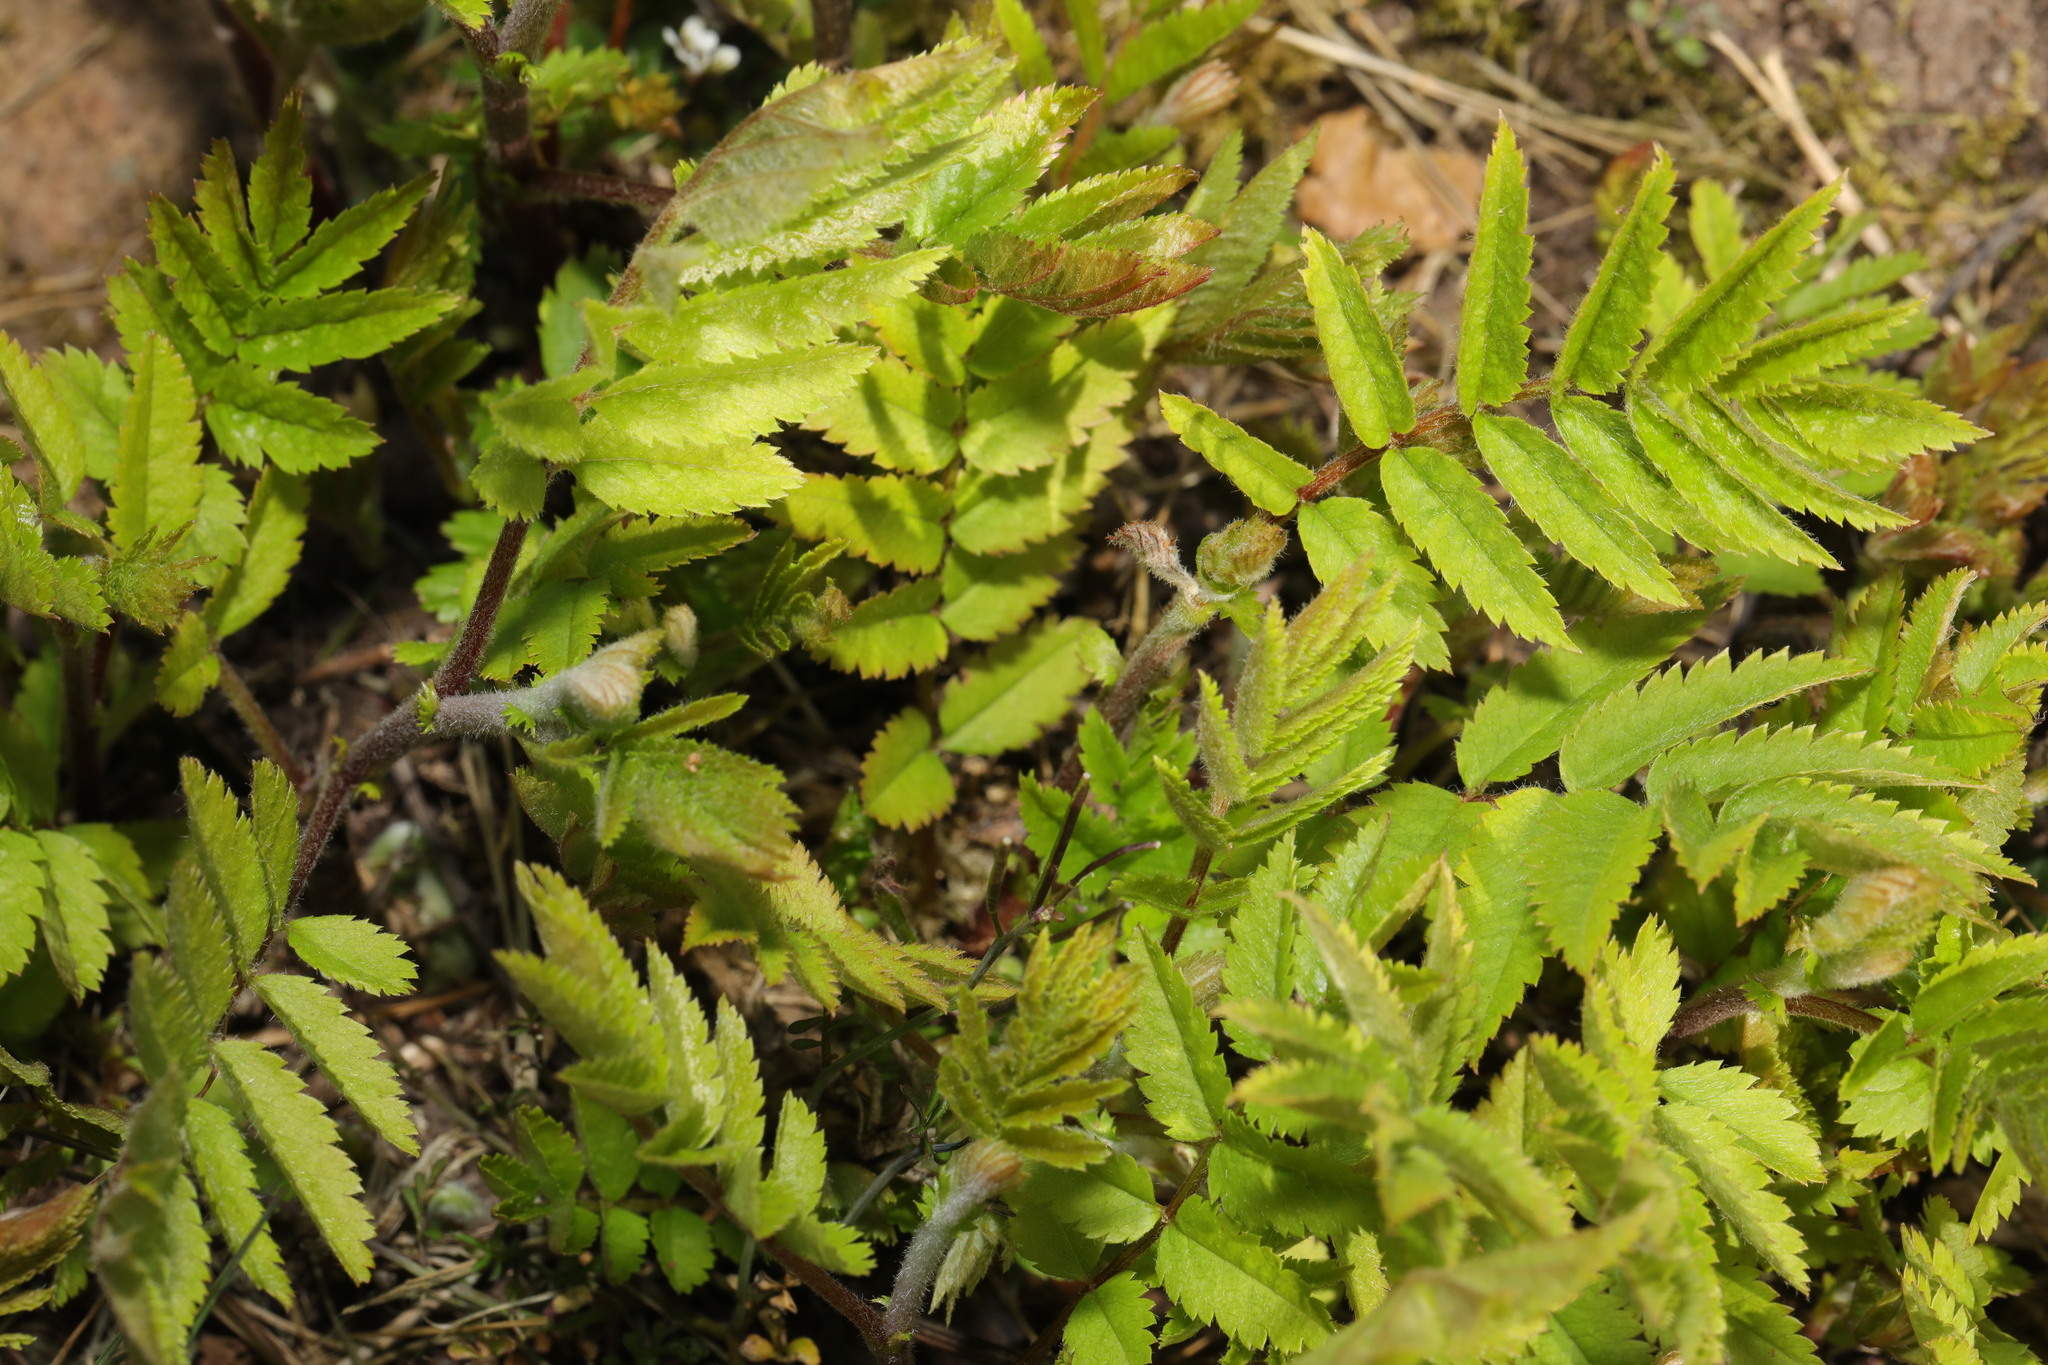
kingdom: Plantae
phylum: Tracheophyta
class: Magnoliopsida
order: Rosales
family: Rosaceae
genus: Sorbus
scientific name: Sorbus aucuparia
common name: Rowan
